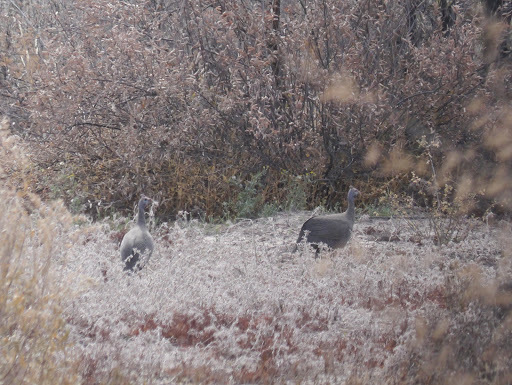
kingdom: Animalia
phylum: Chordata
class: Aves
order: Galliformes
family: Numididae
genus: Numida
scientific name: Numida meleagris
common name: Helmeted guineafowl
